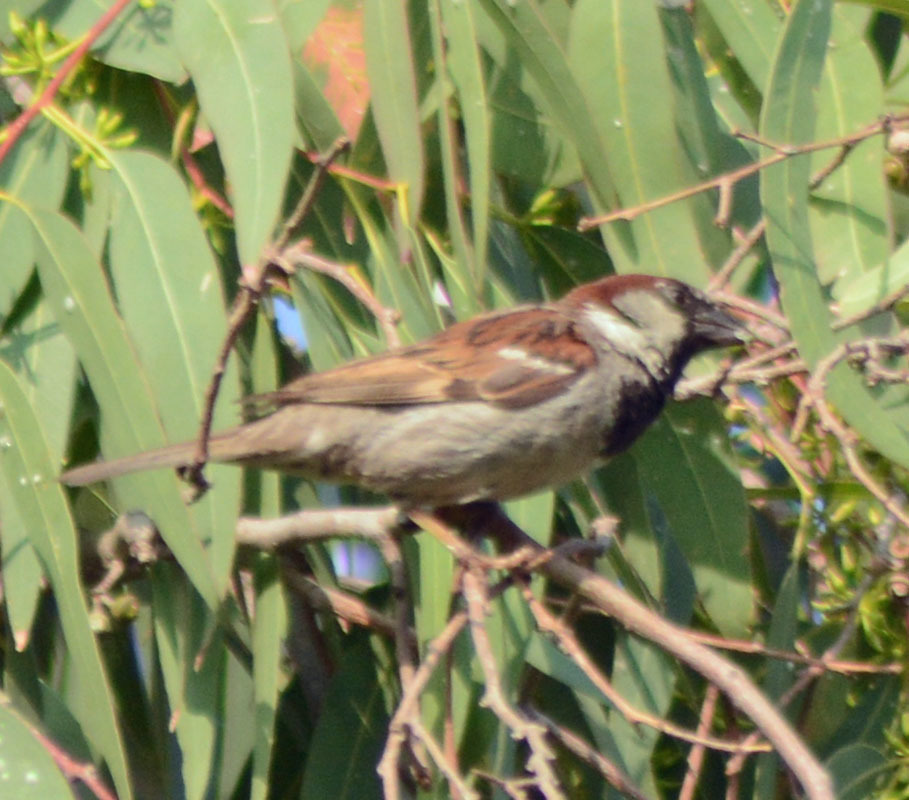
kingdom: Animalia
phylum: Chordata
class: Aves
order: Passeriformes
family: Passeridae
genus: Passer
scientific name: Passer domesticus
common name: House sparrow
